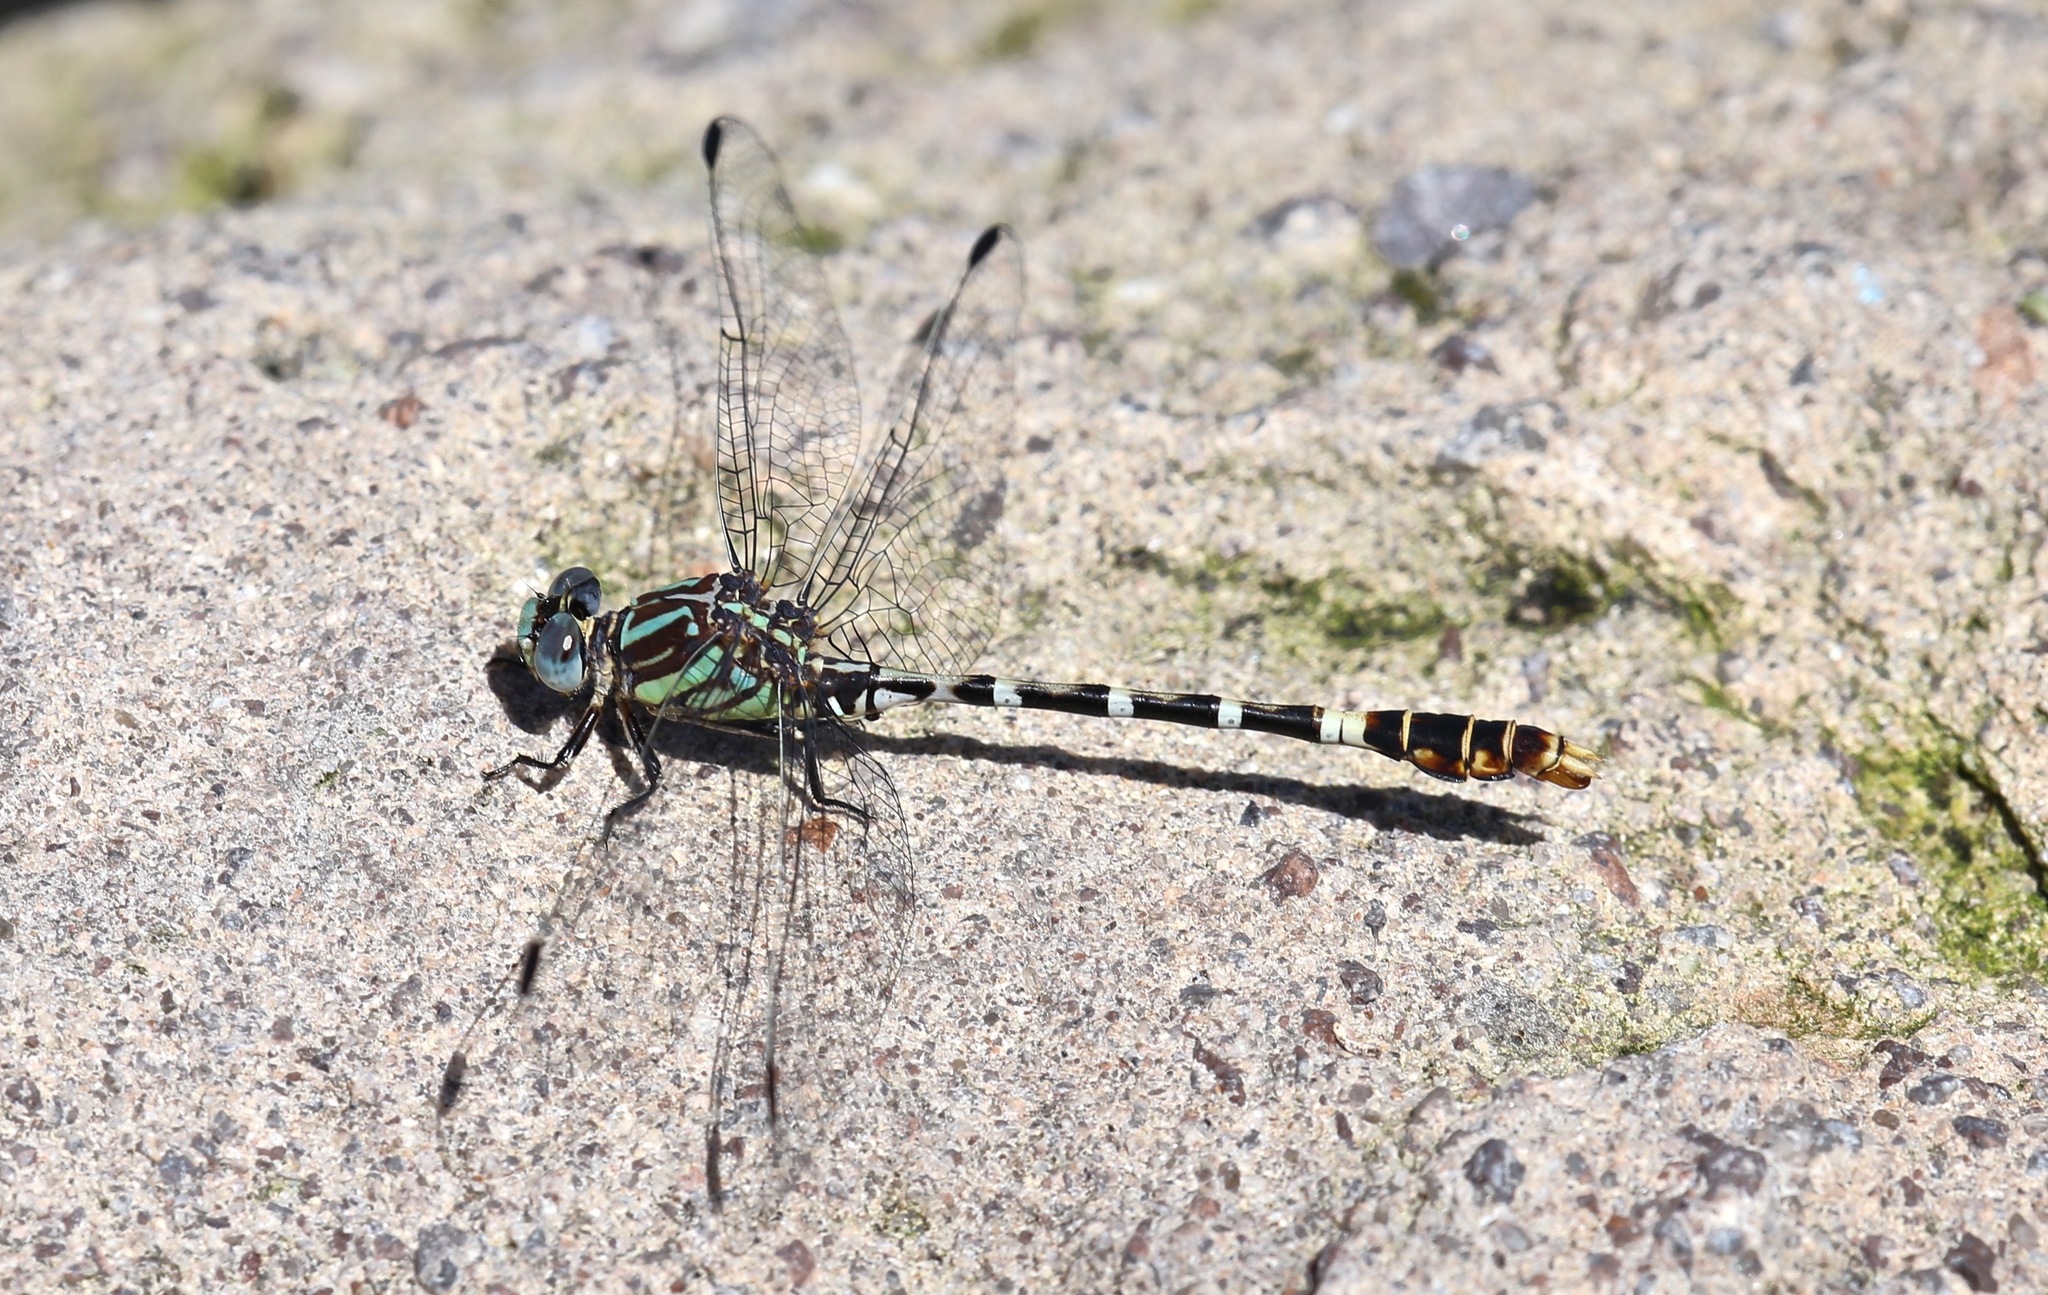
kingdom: Animalia
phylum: Arthropoda
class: Insecta
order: Odonata
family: Gomphidae
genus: Erpetogomphus
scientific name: Erpetogomphus lampropeltis
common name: Serpent ringtail
